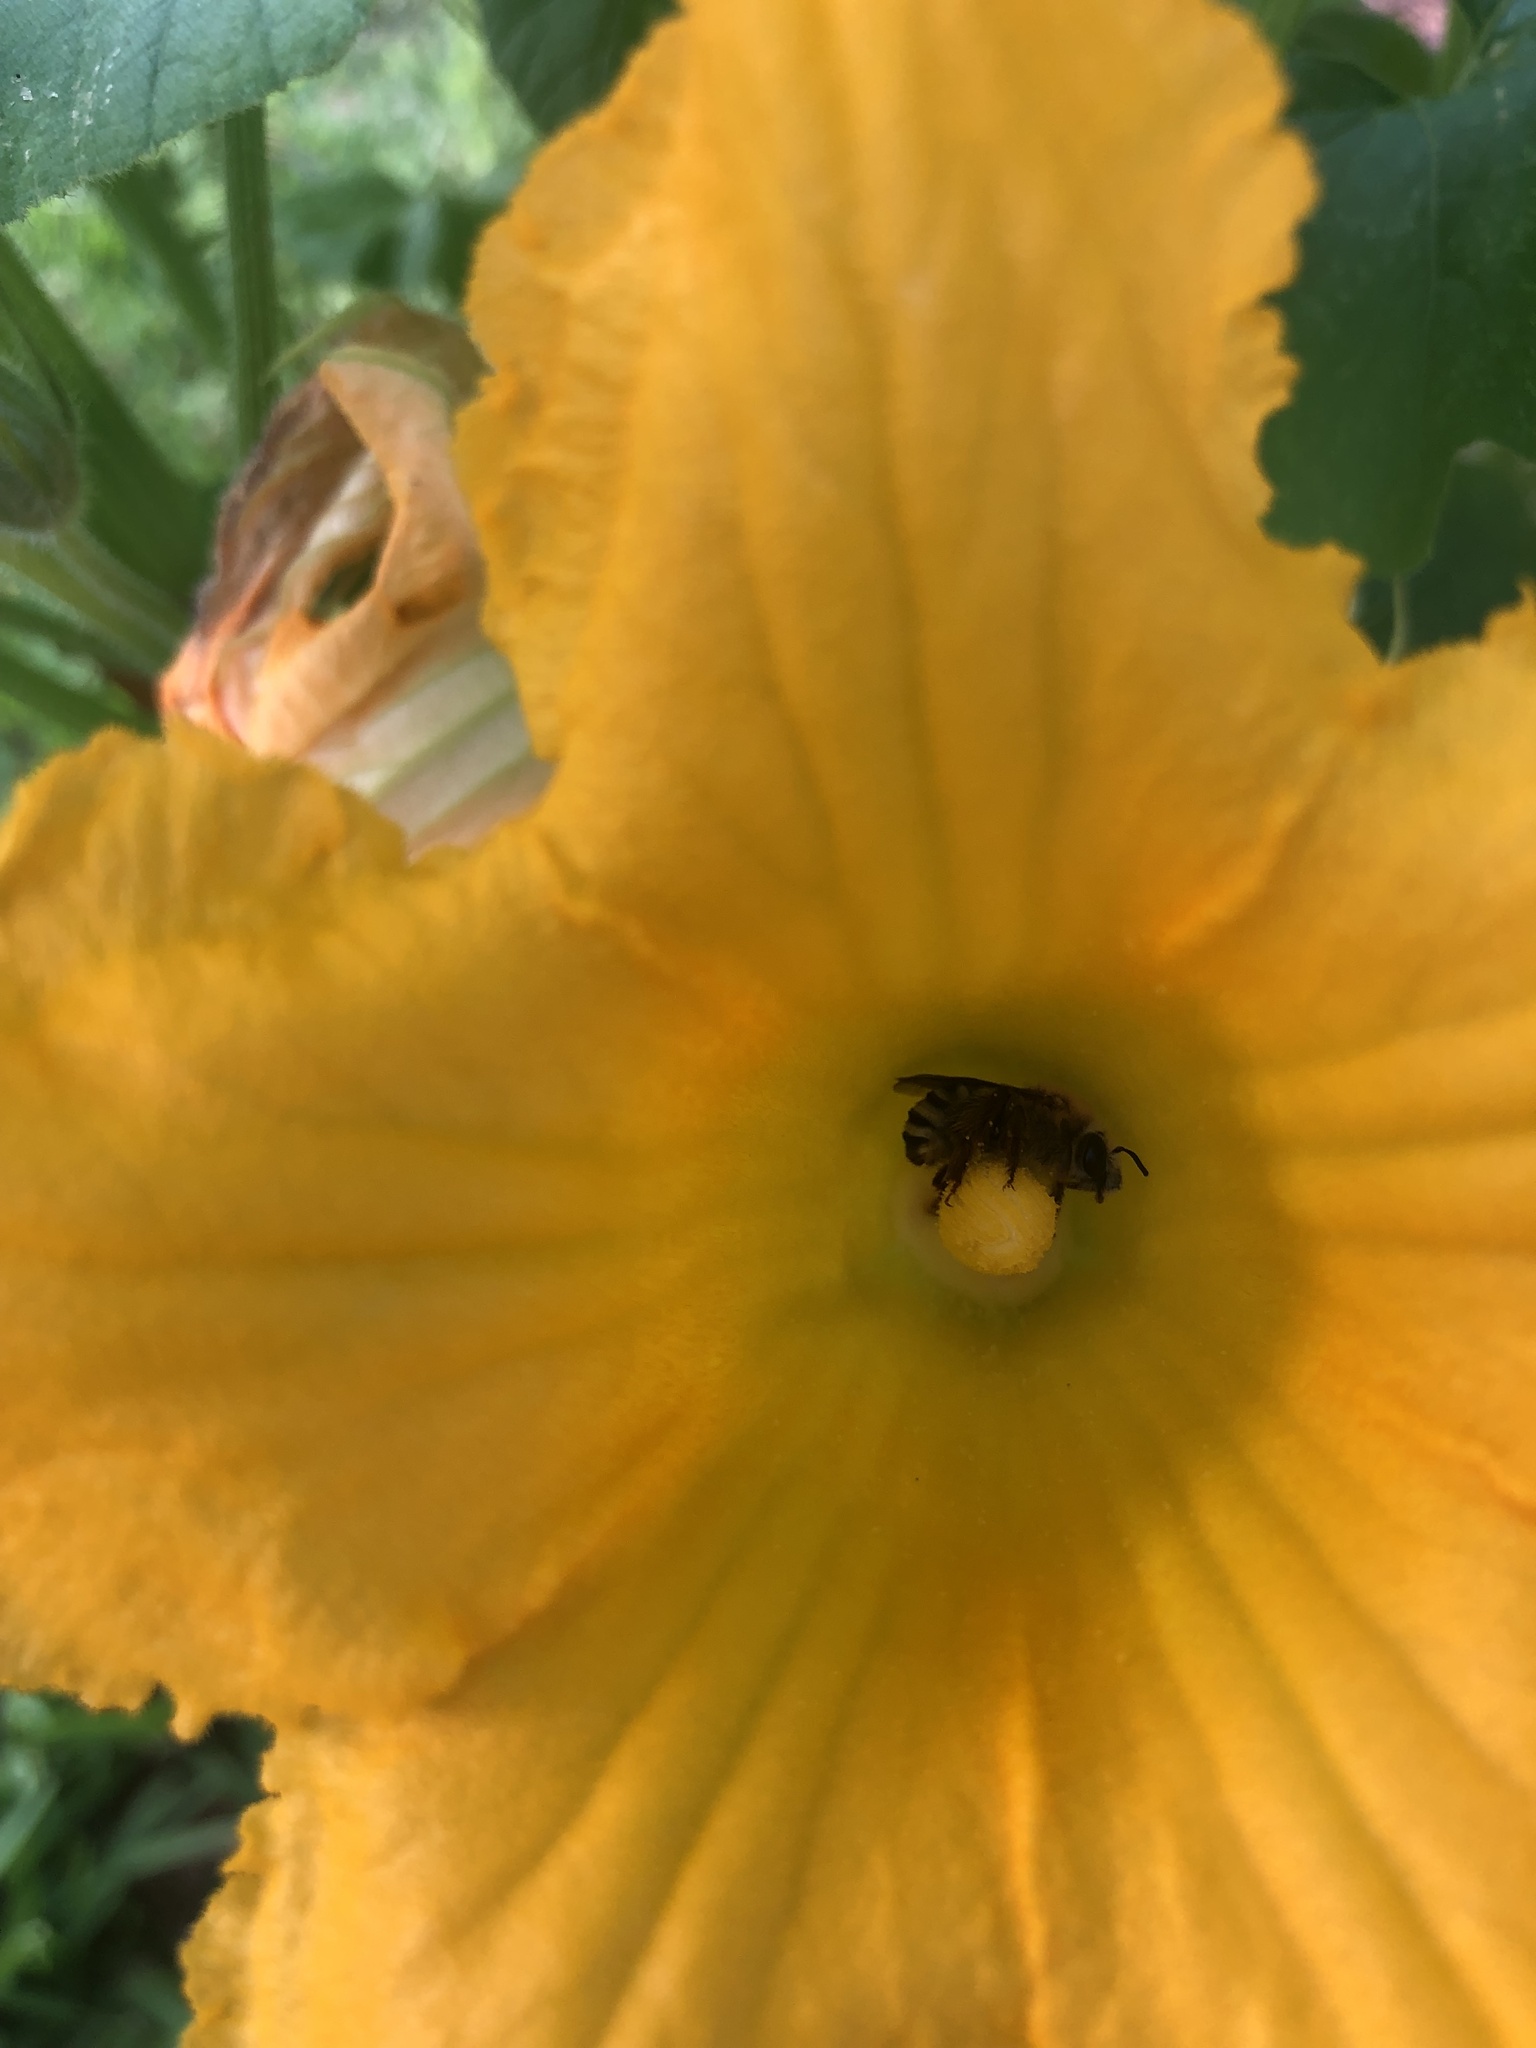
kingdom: Animalia
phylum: Arthropoda
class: Insecta
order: Hymenoptera
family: Apidae
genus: Peponapis
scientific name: Peponapis pruinosa
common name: Pruinose squash bee
